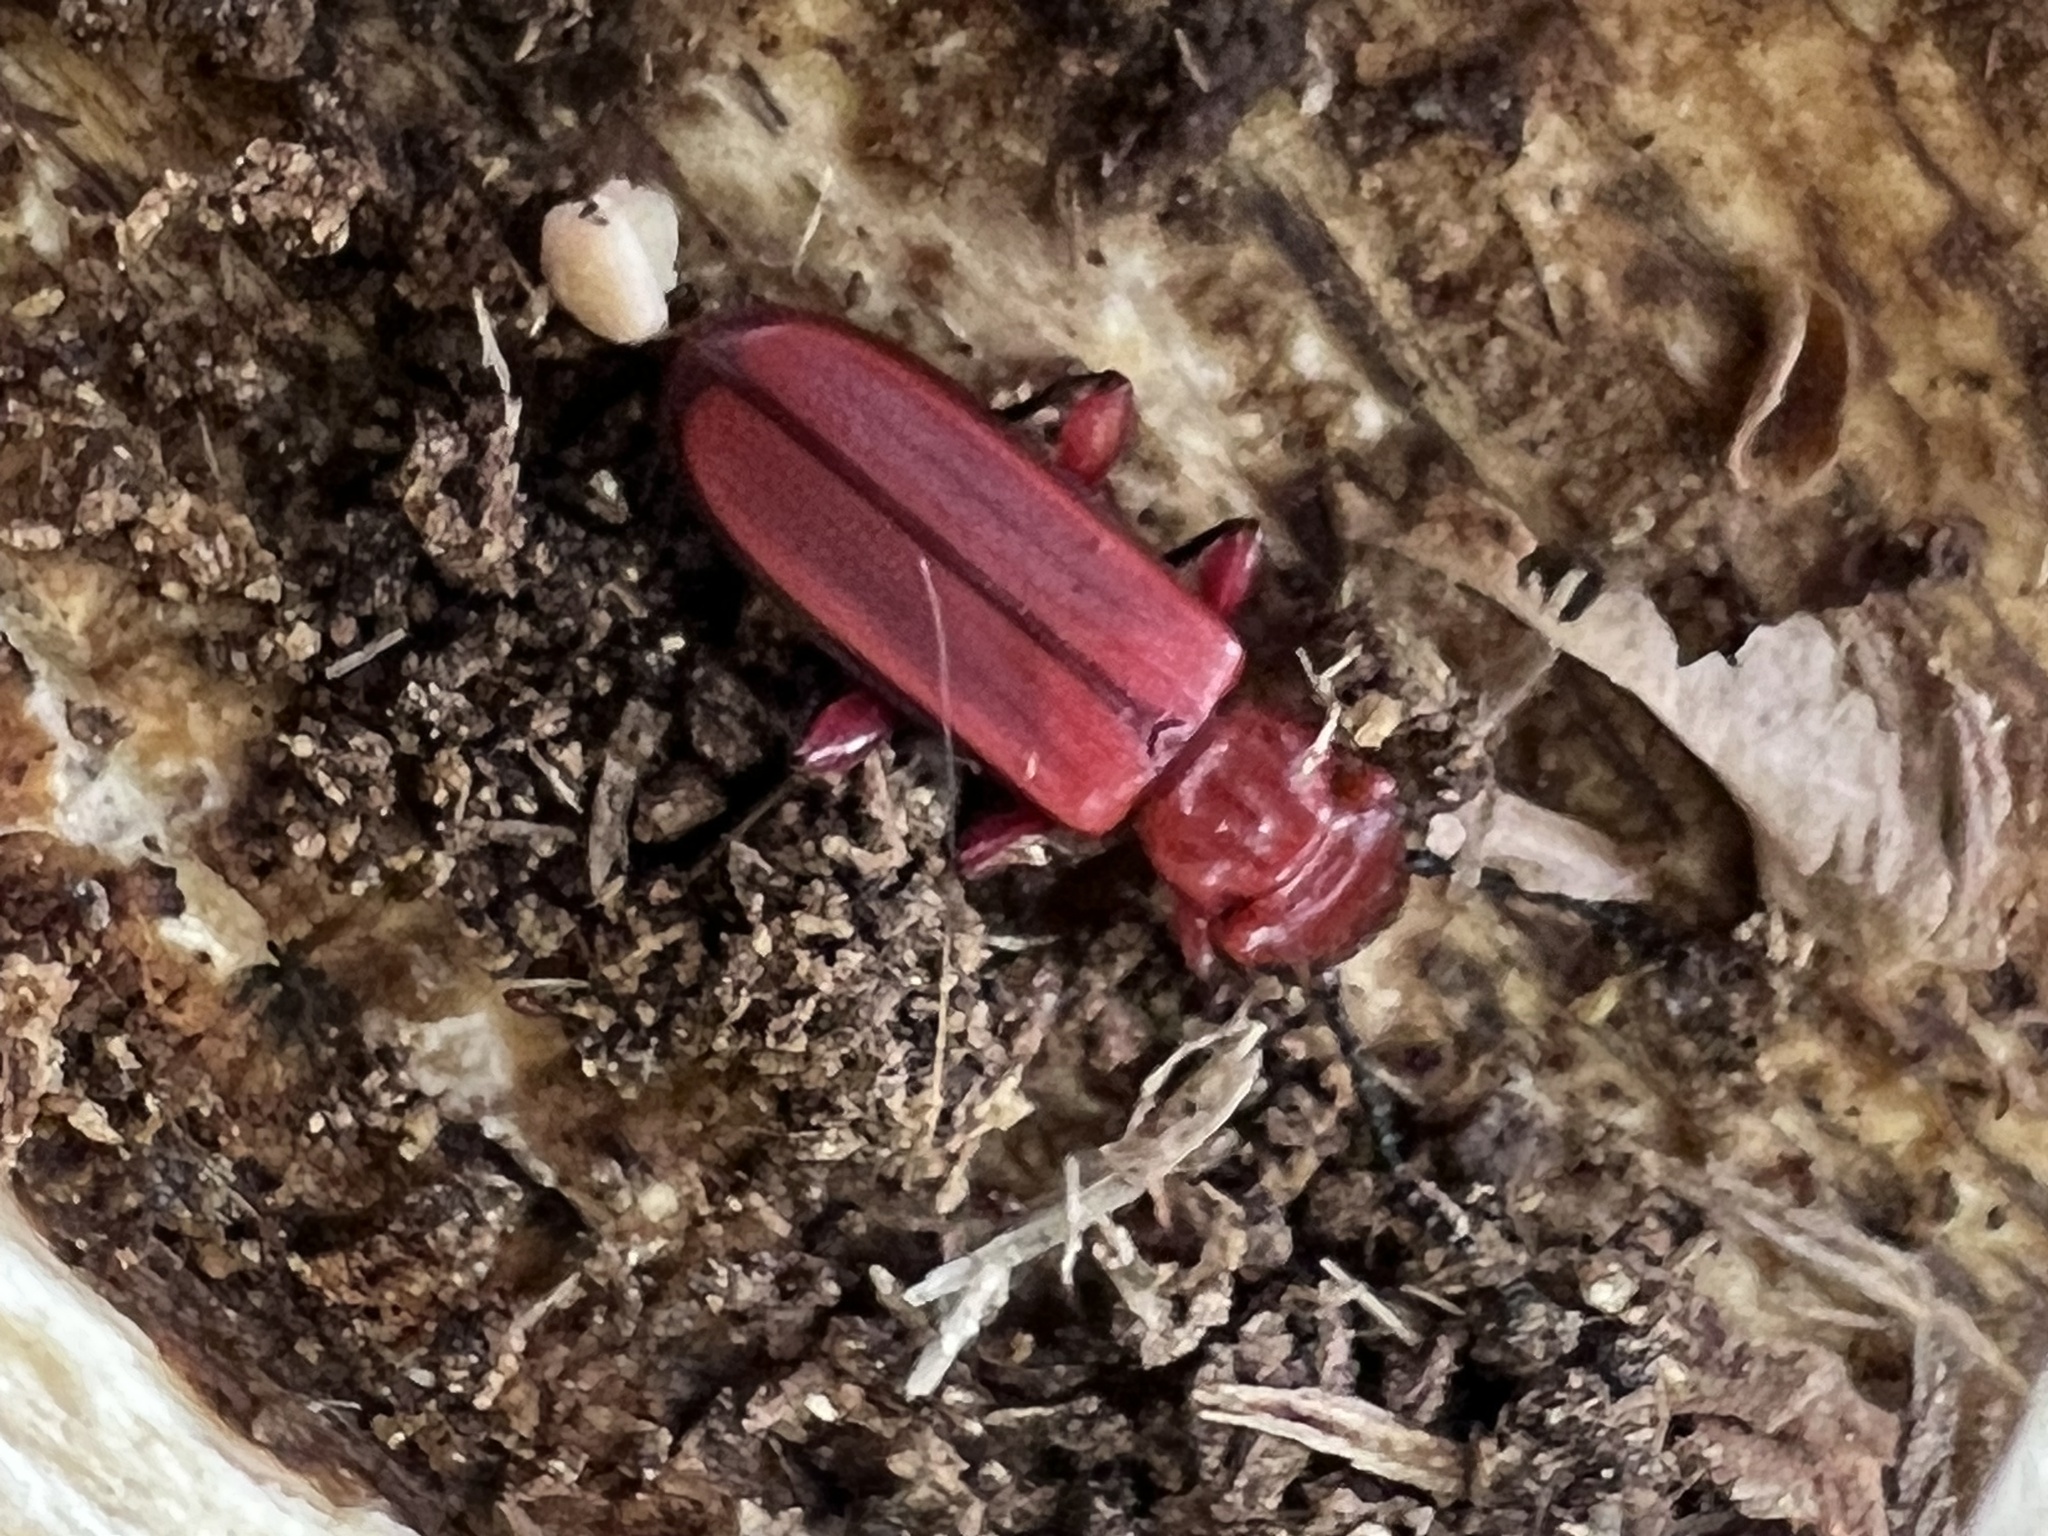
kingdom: Animalia
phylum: Arthropoda
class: Insecta
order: Coleoptera
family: Cucujidae
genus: Cucujus
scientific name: Cucujus clavipes
